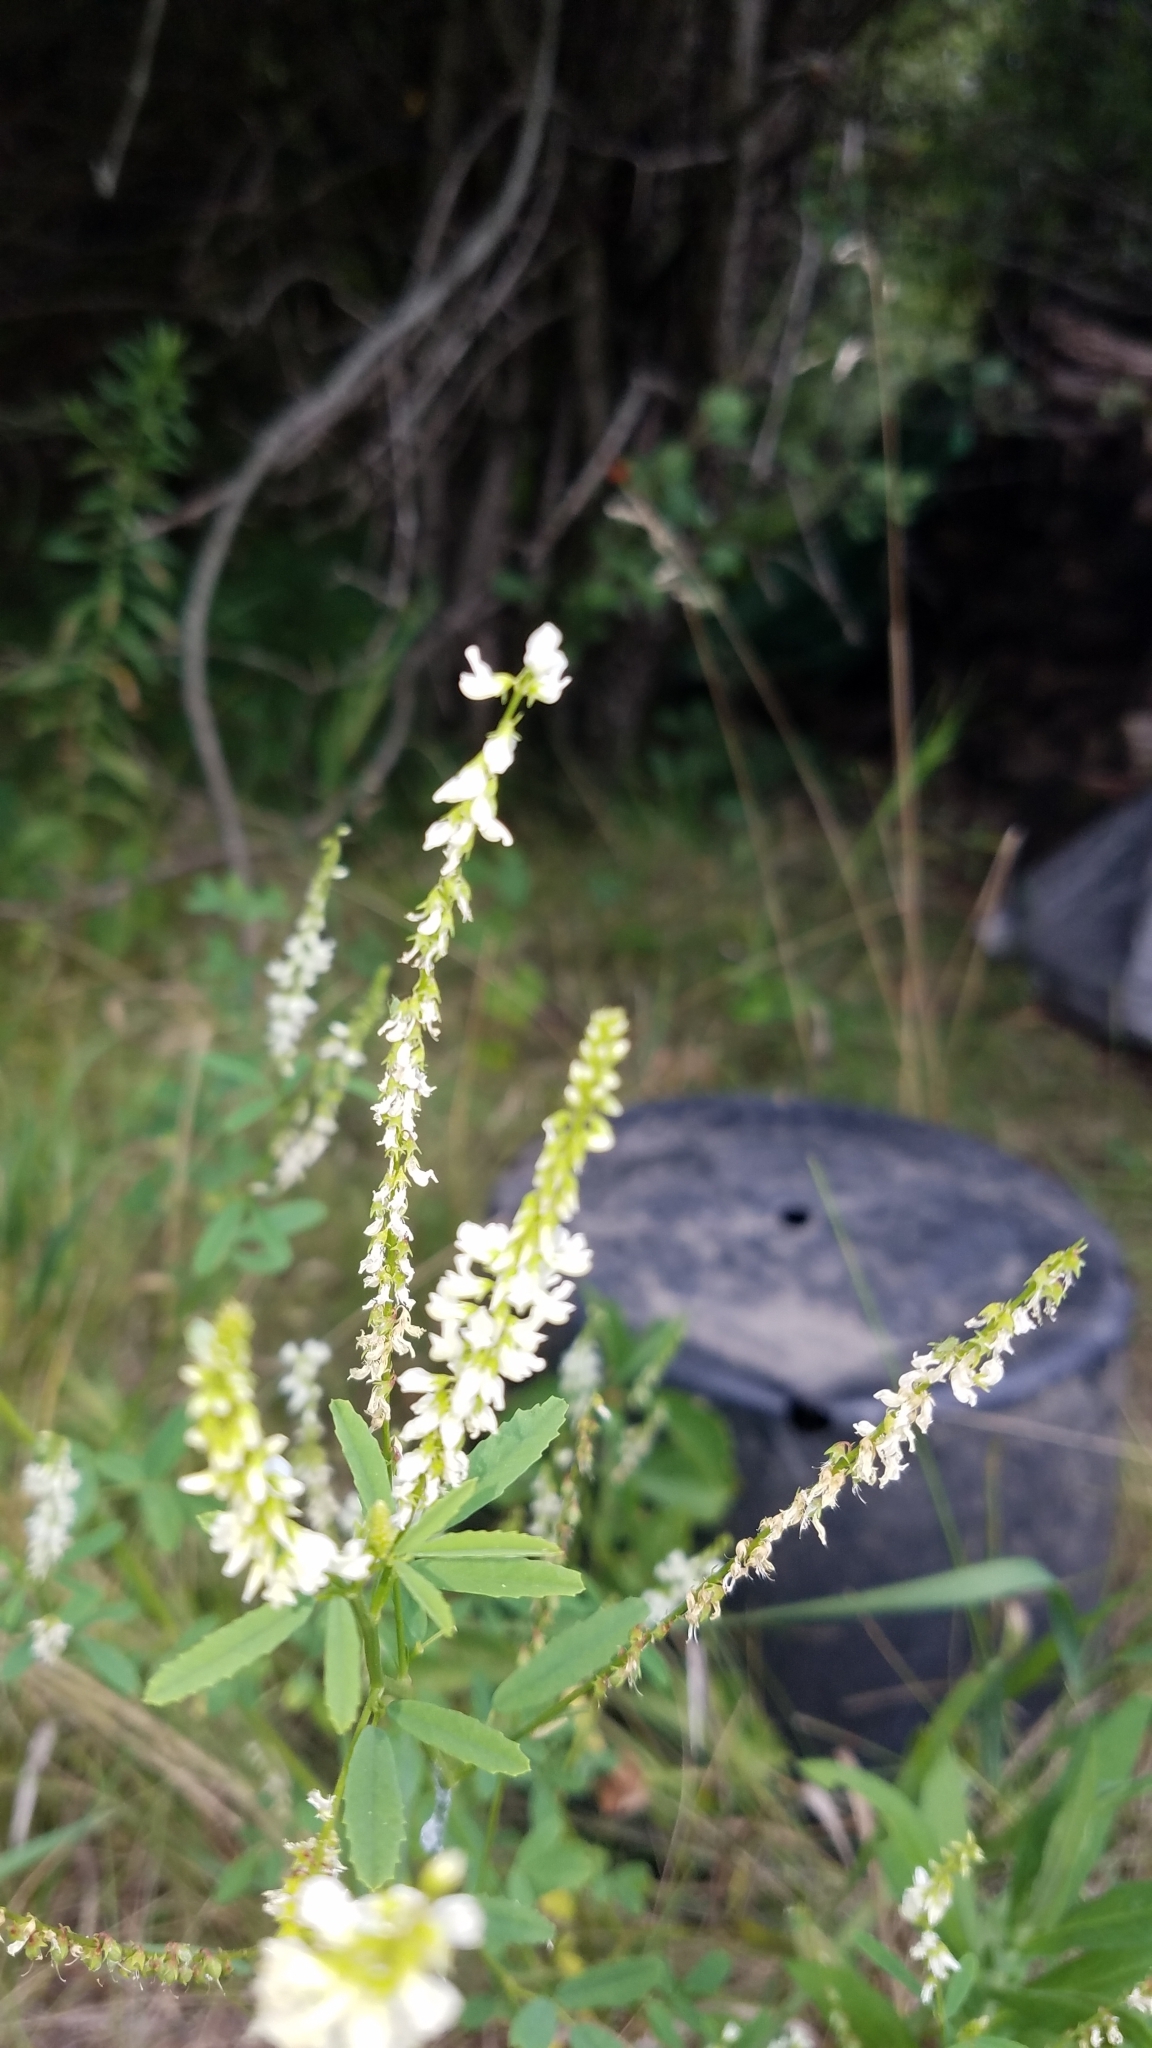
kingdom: Plantae
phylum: Tracheophyta
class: Magnoliopsida
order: Fabales
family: Fabaceae
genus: Melilotus
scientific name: Melilotus albus
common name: White melilot
